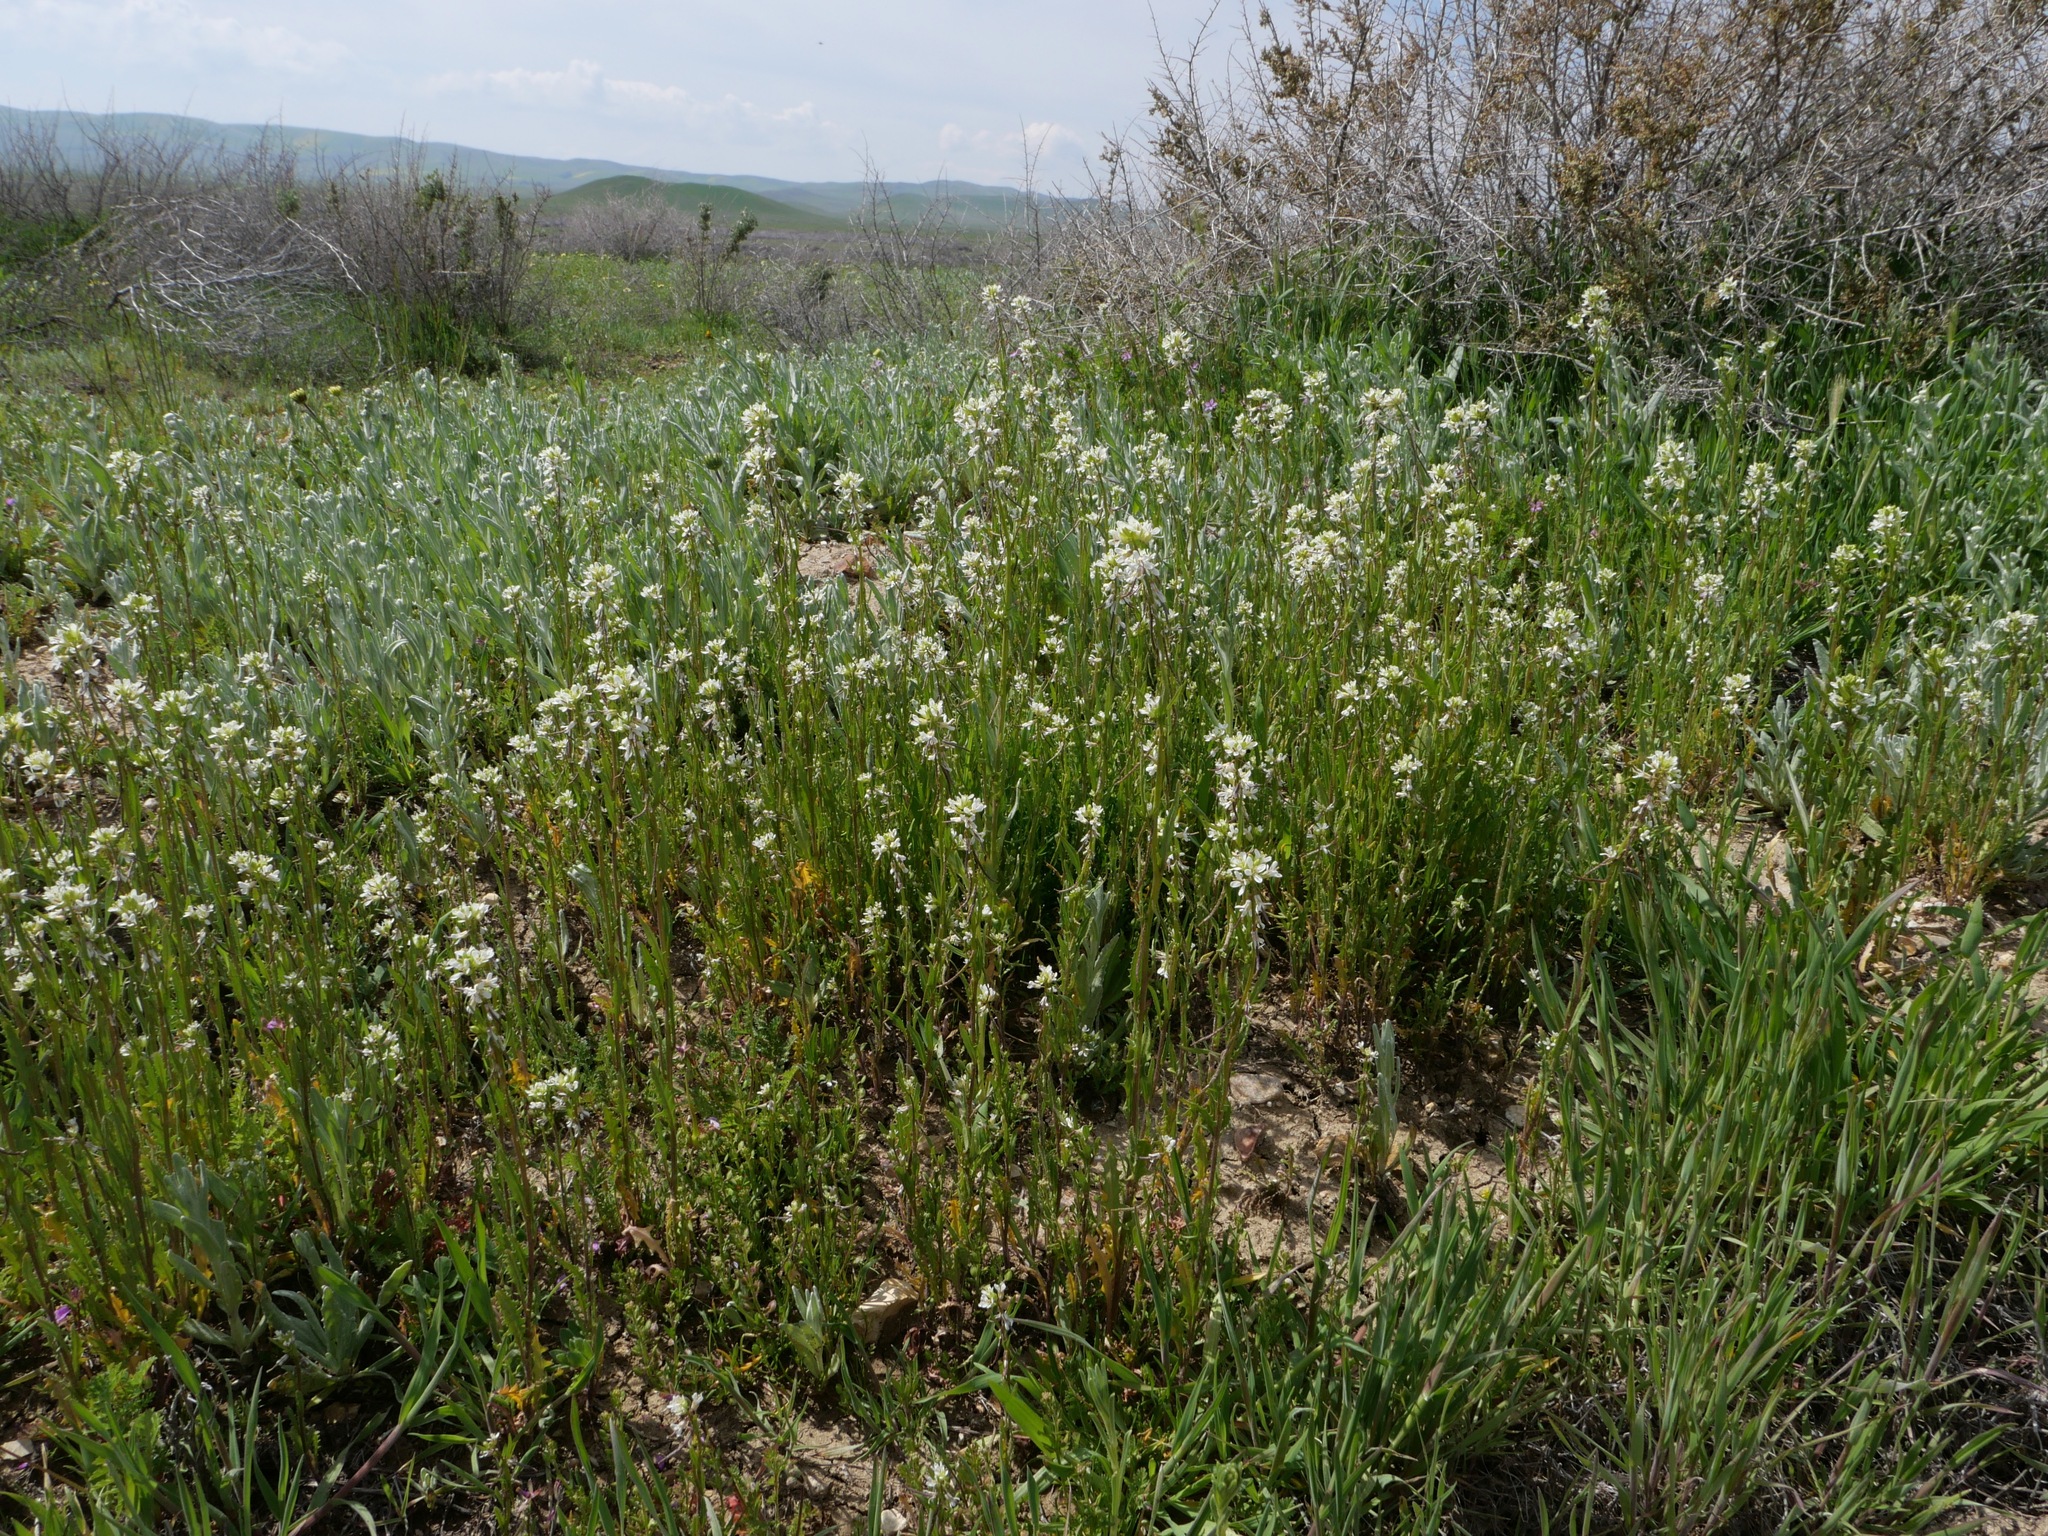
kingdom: Plantae
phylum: Tracheophyta
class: Magnoliopsida
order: Brassicales
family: Brassicaceae
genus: Streptanthus
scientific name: Streptanthus lasiophyllus
